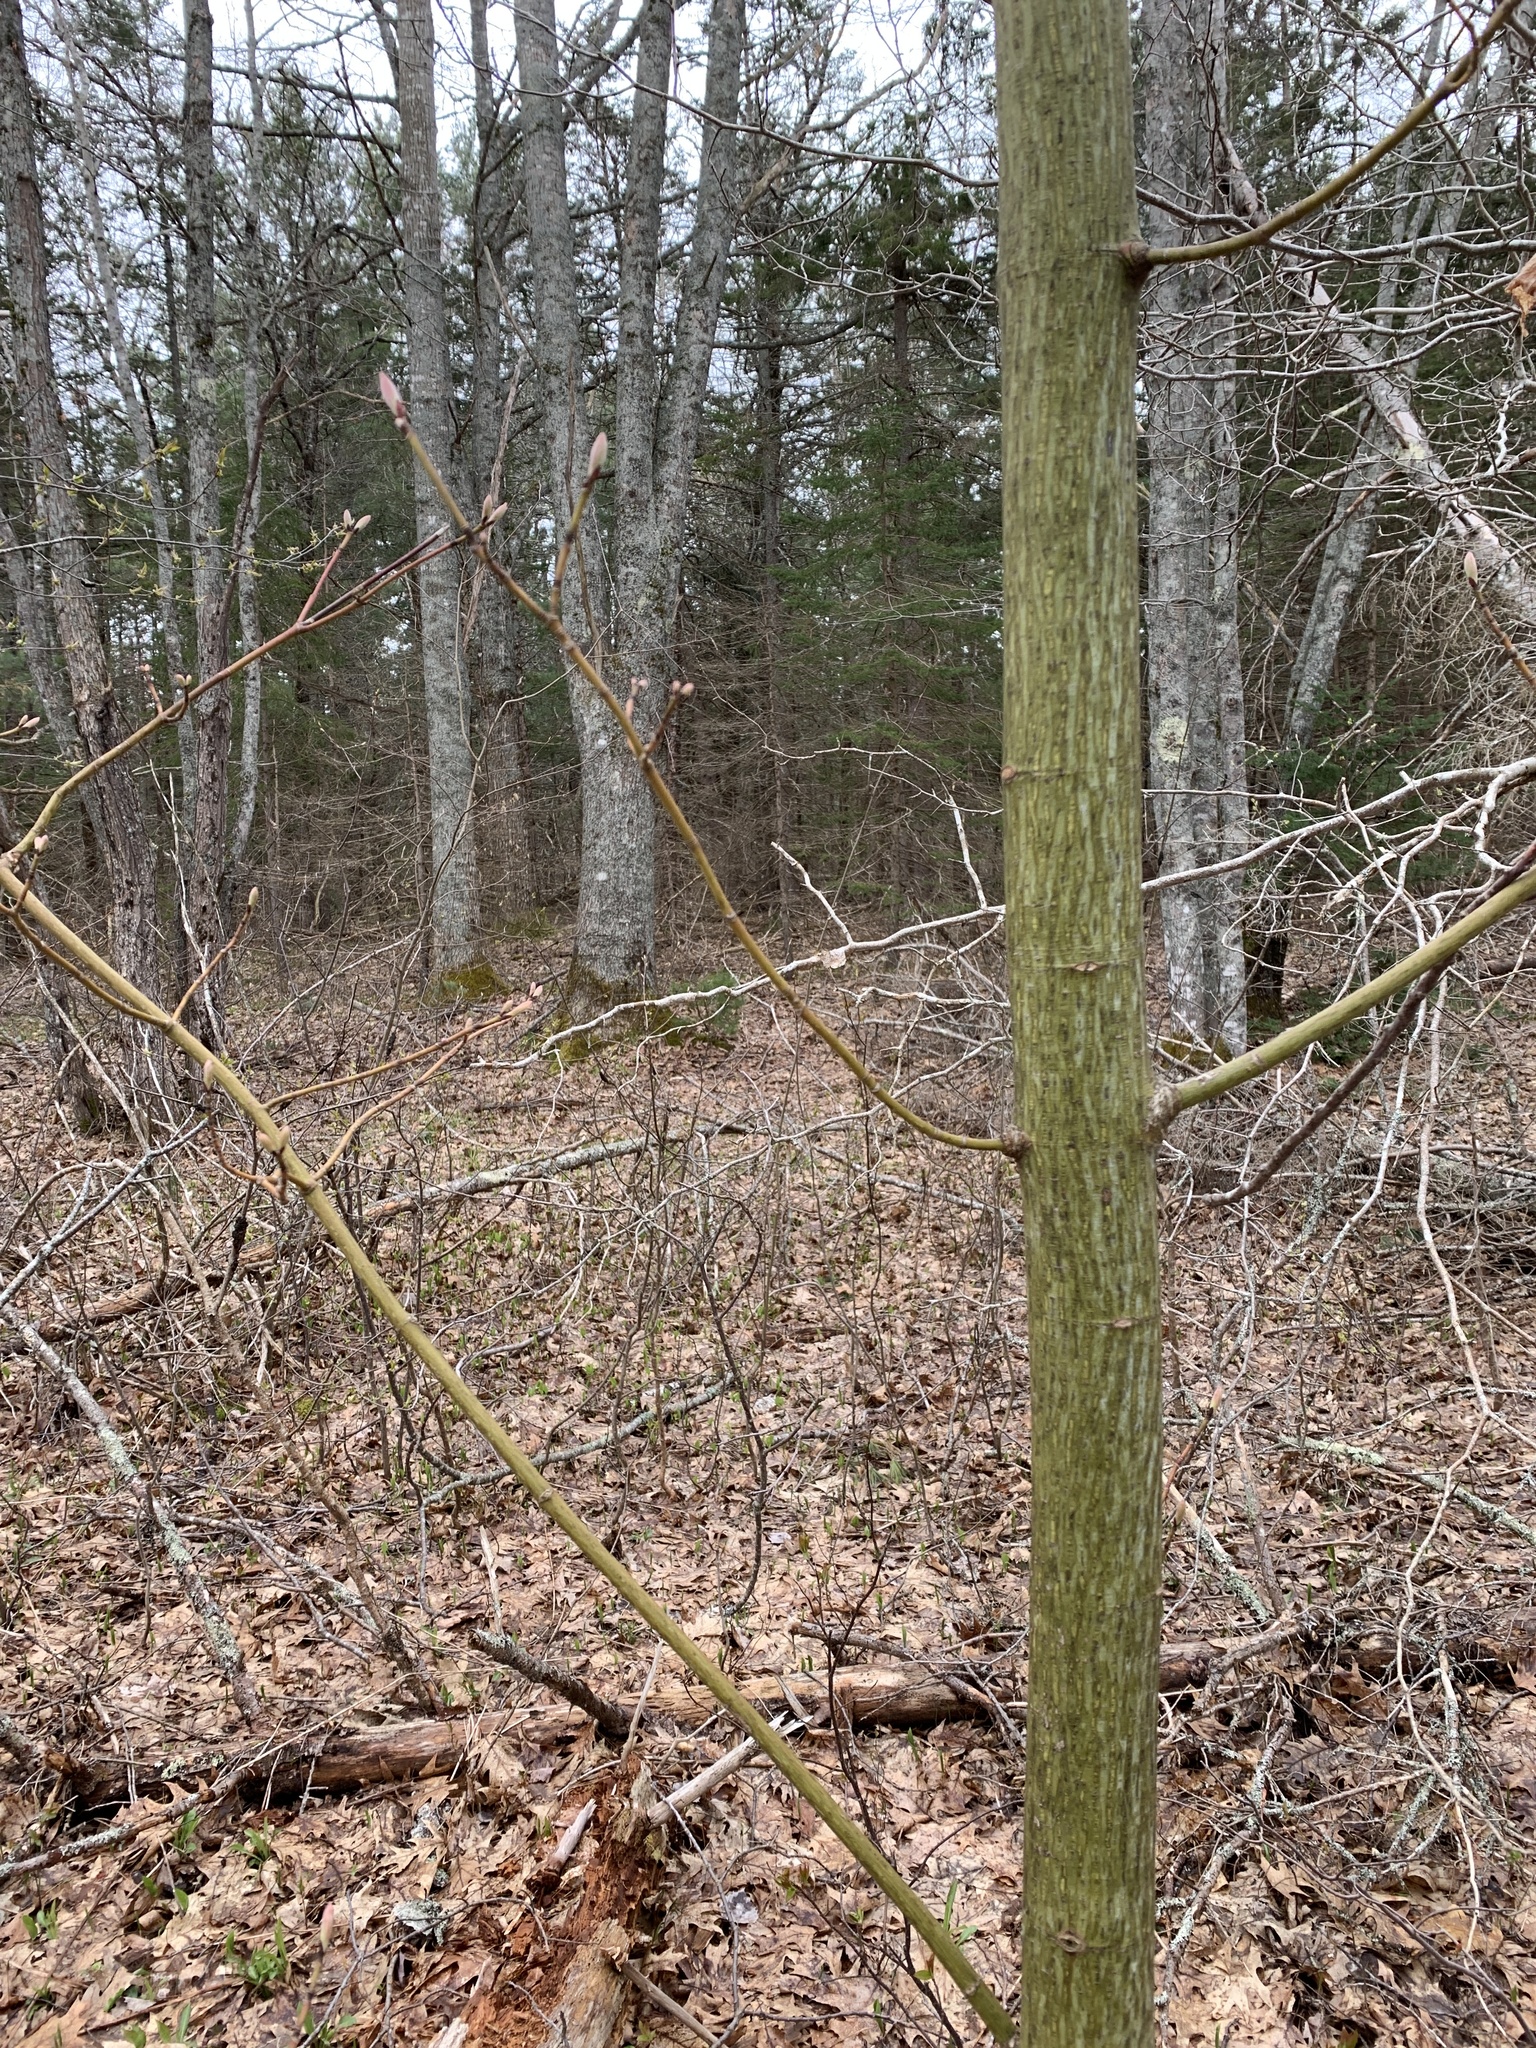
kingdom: Plantae
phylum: Tracheophyta
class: Magnoliopsida
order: Sapindales
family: Sapindaceae
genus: Acer
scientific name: Acer pensylvanicum
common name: Moosewood
